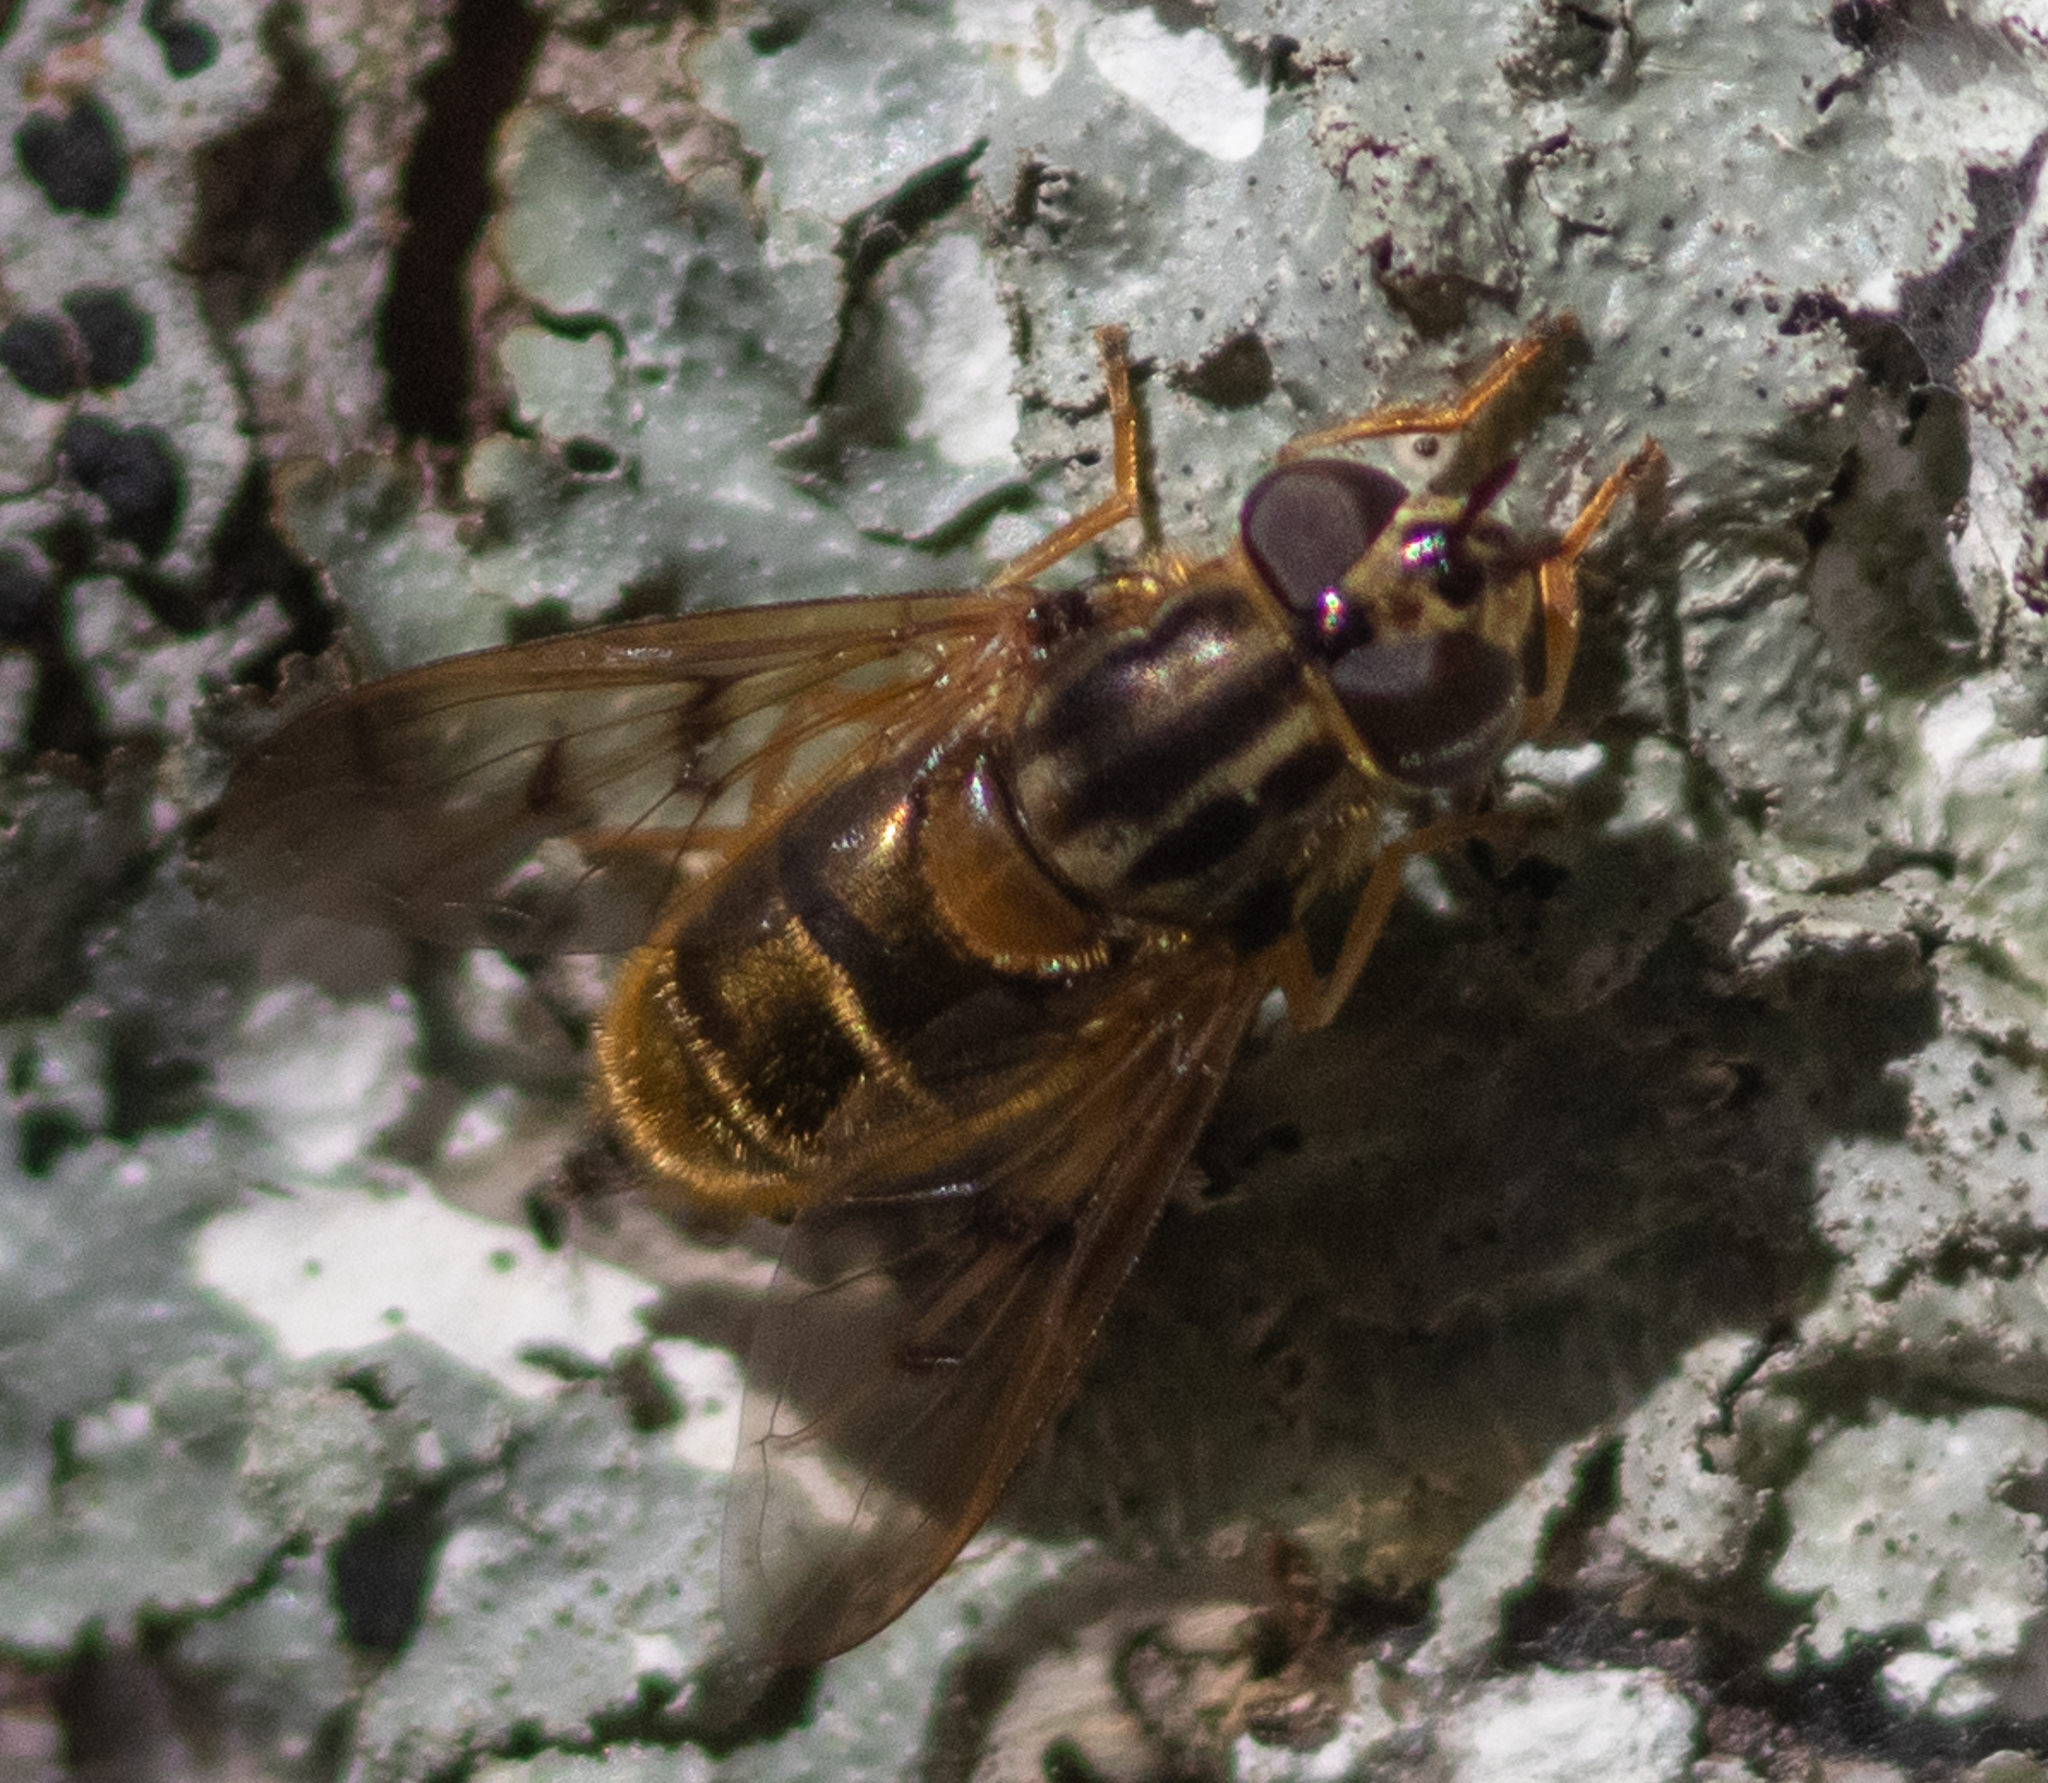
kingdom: Animalia
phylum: Arthropoda
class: Insecta
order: Diptera
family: Syrphidae
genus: Ferdinandea
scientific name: Ferdinandea buccata
